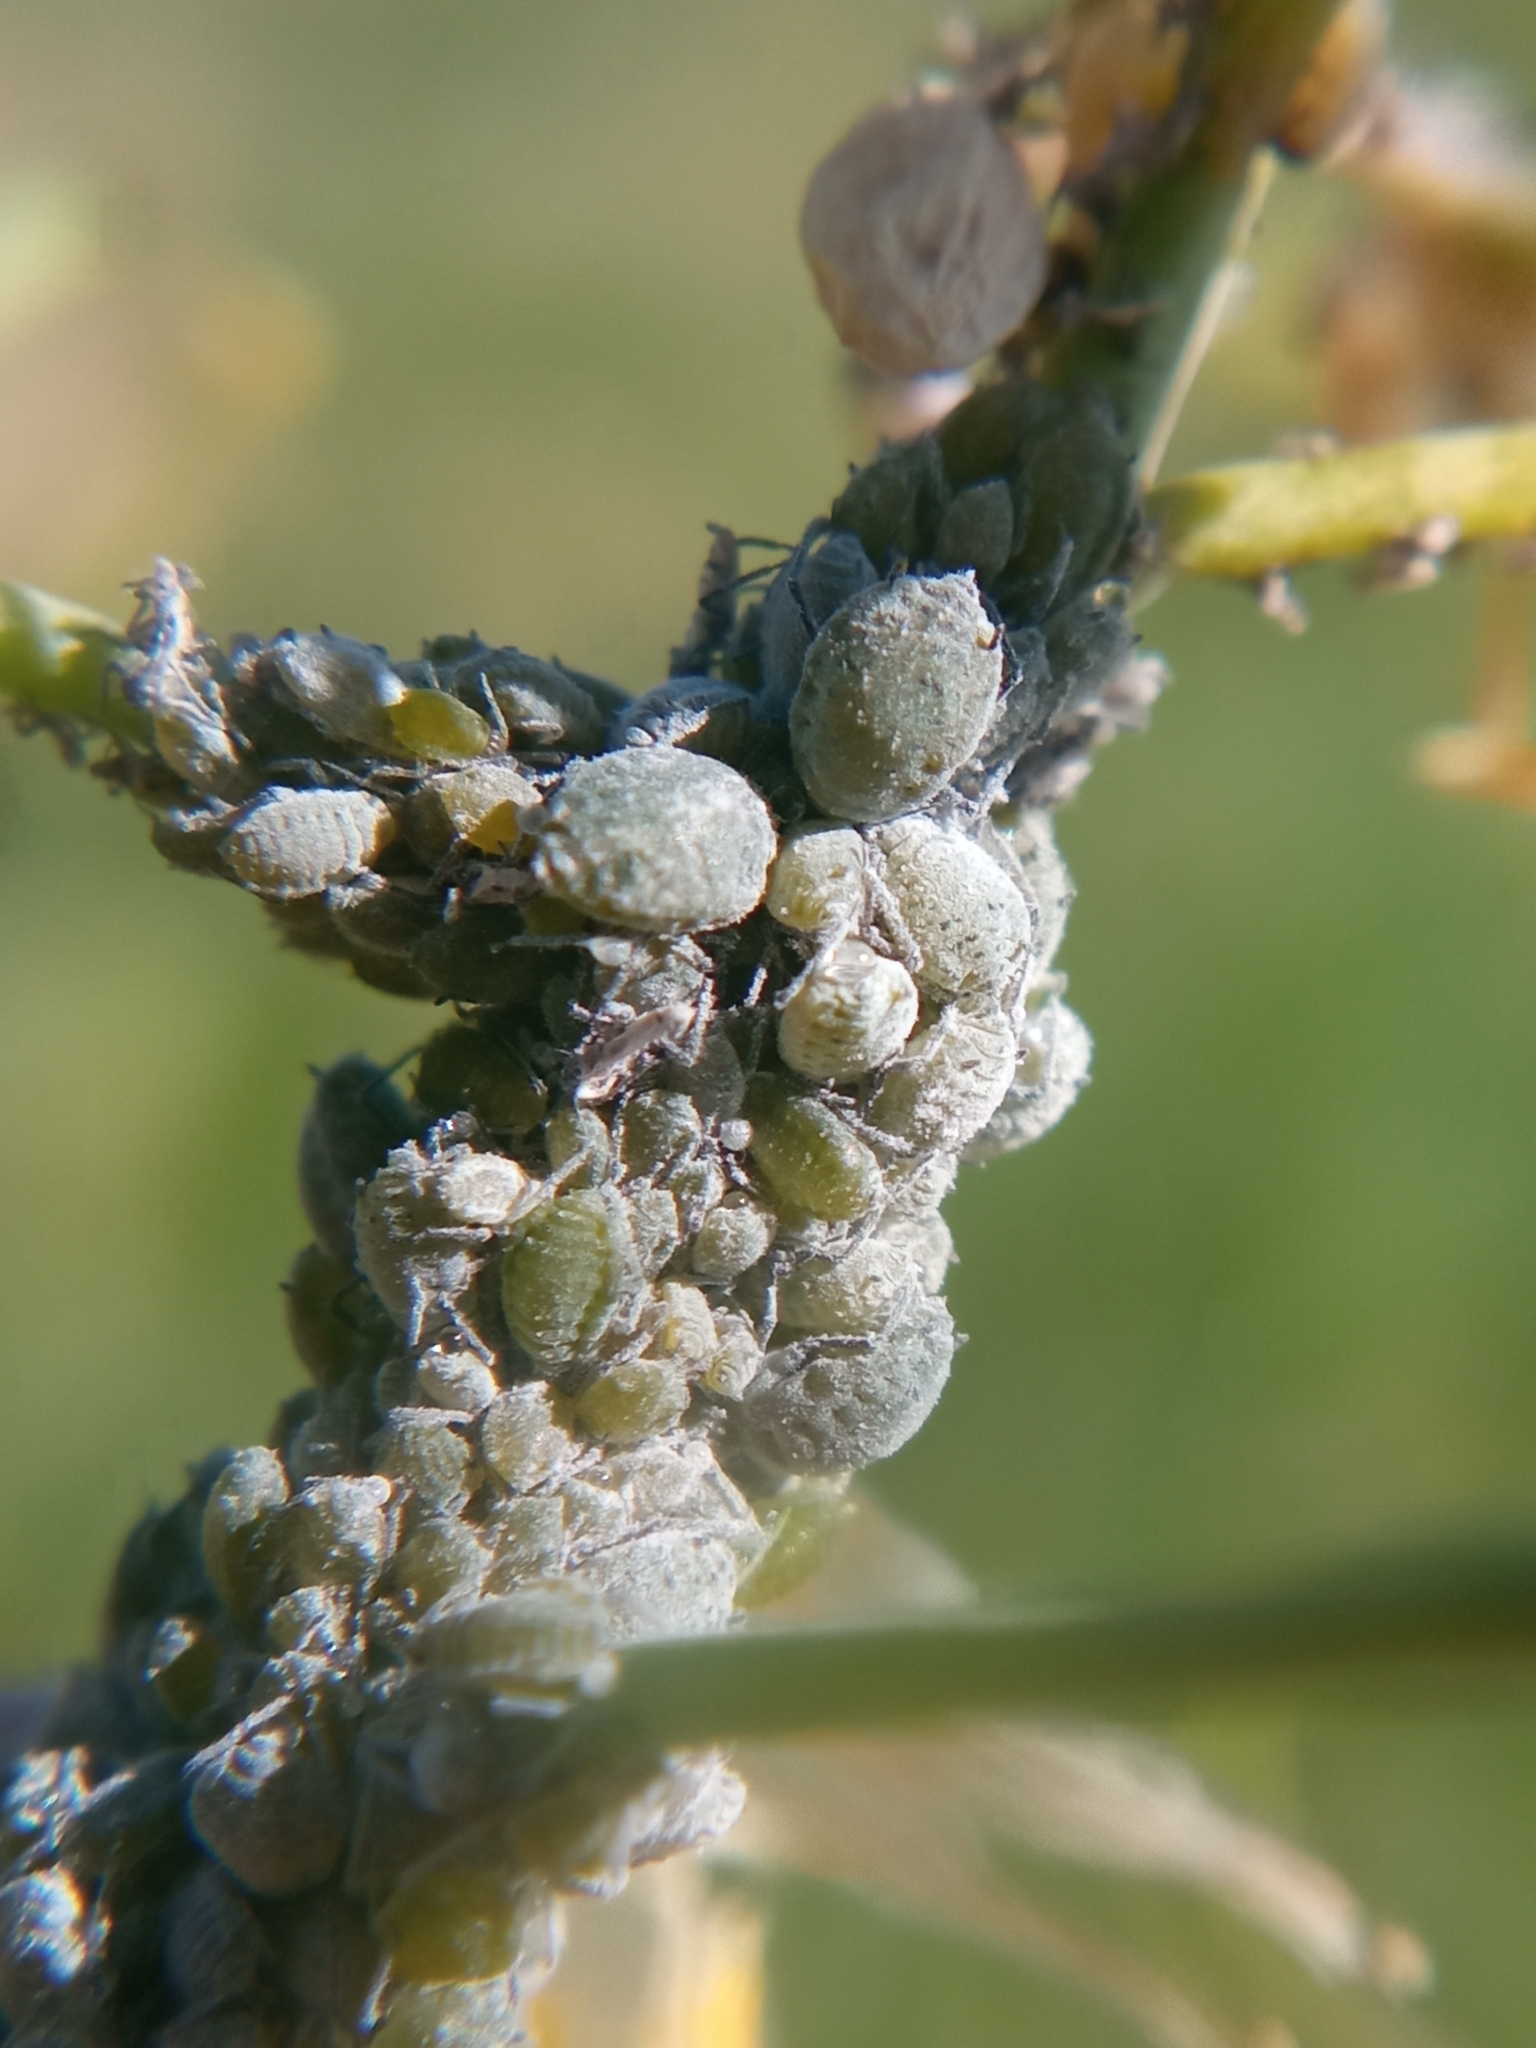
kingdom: Animalia
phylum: Arthropoda
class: Insecta
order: Hemiptera
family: Aphididae
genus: Brevicoryne
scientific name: Brevicoryne brassicae
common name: Cabbage aphid
